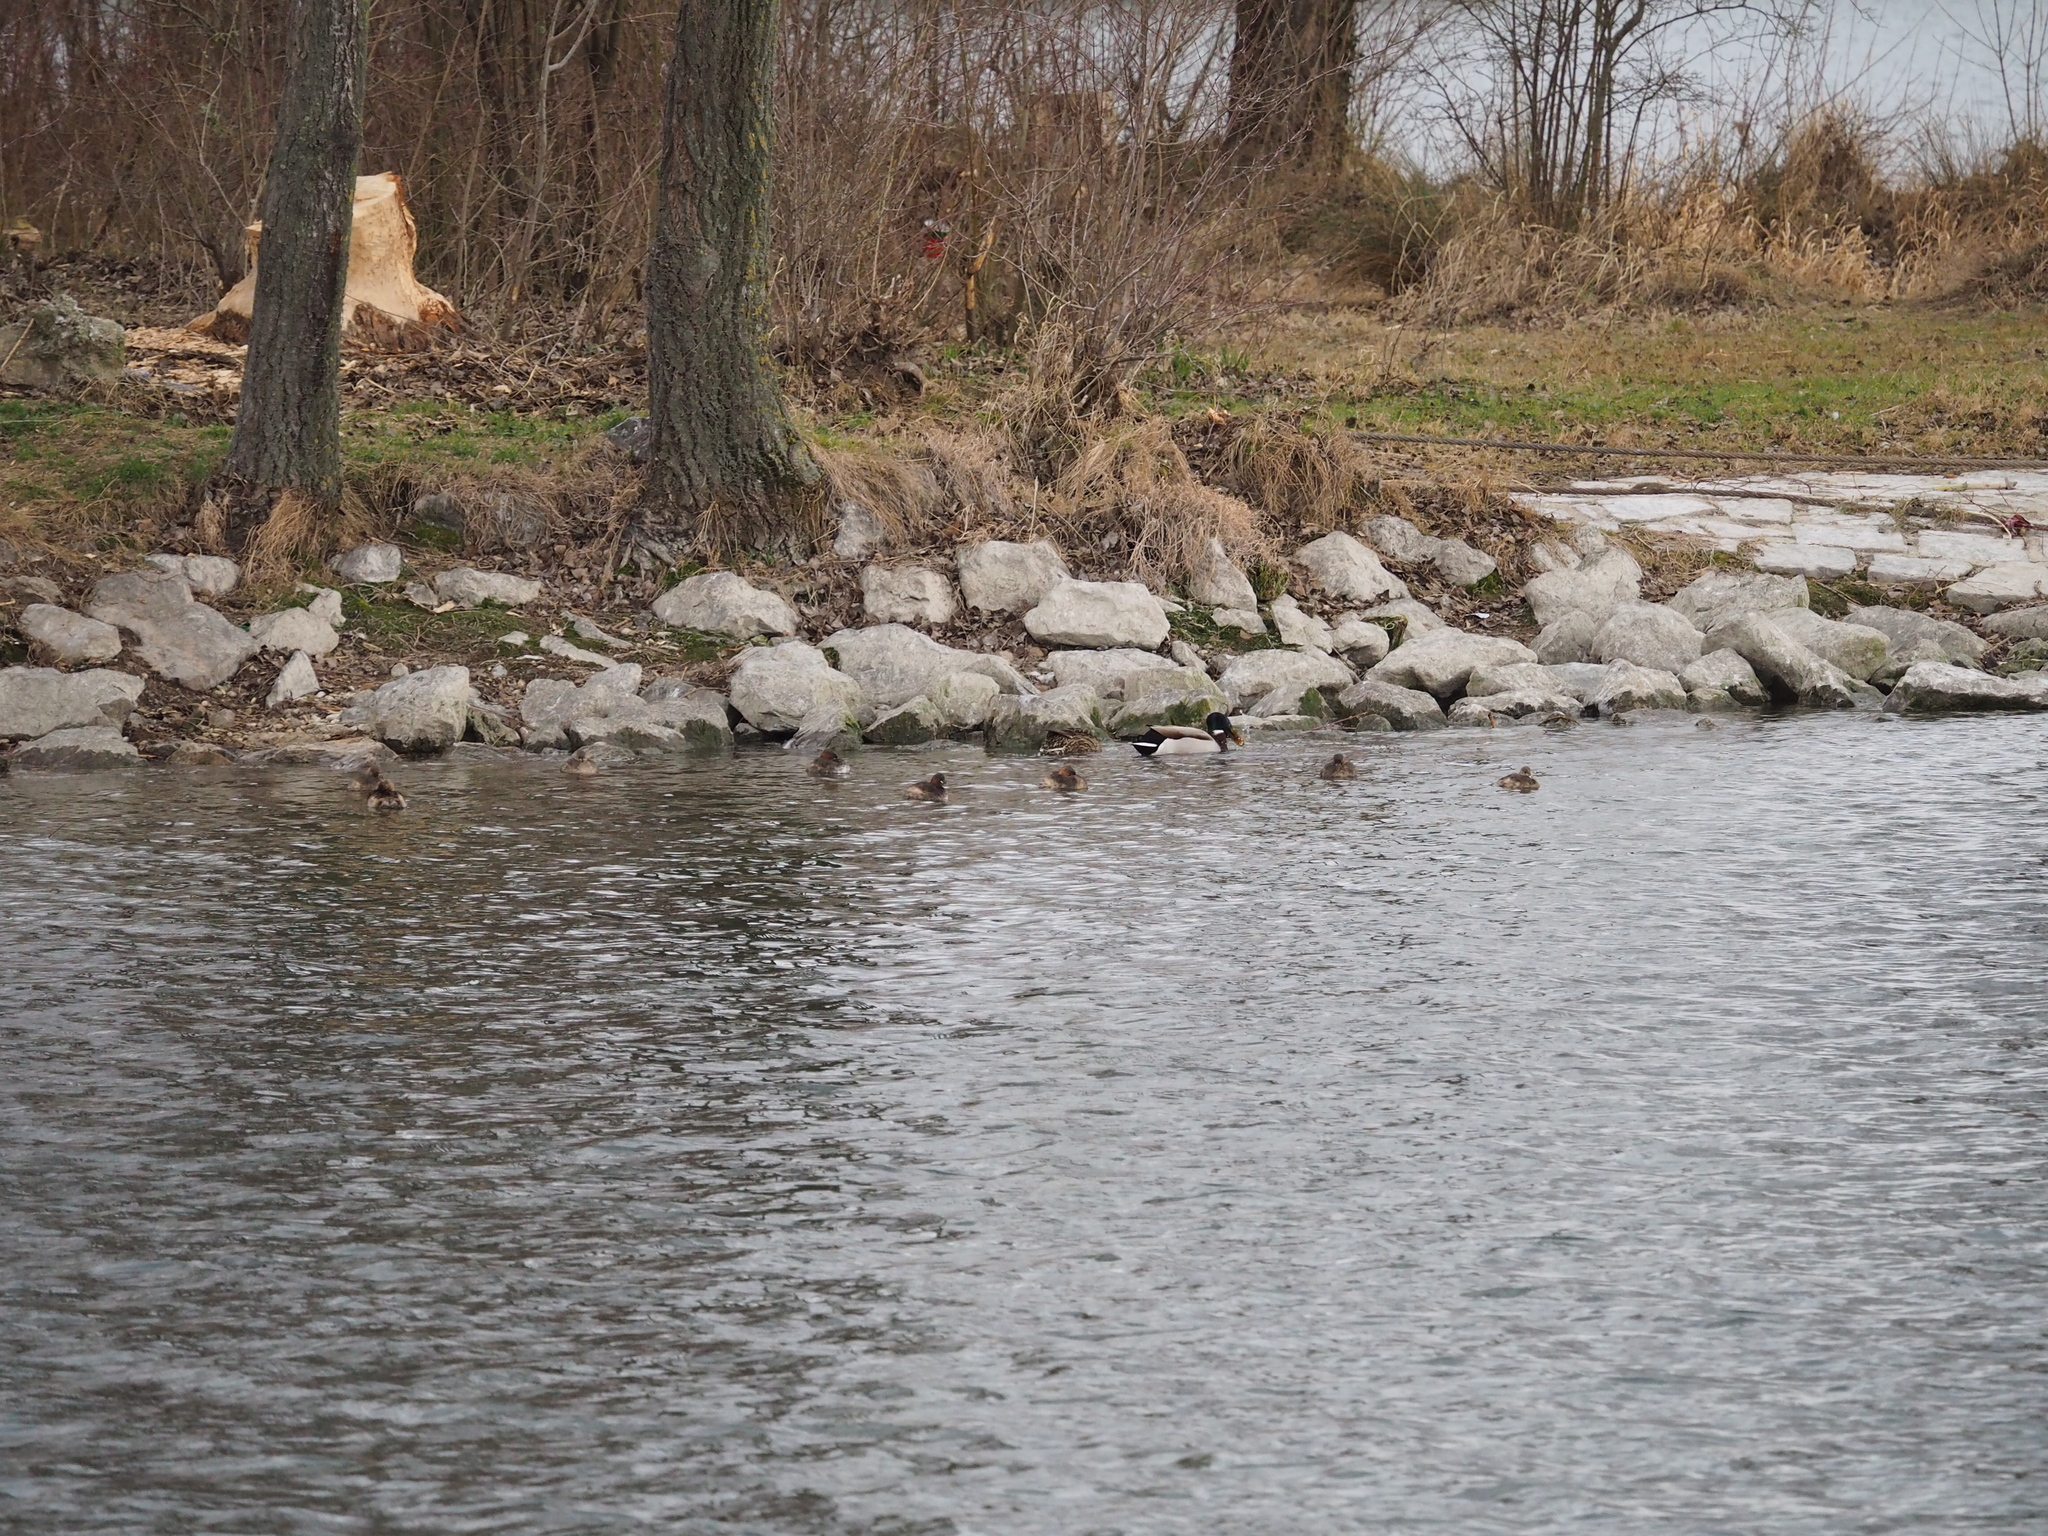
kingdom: Animalia
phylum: Chordata
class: Aves
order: Podicipediformes
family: Podicipedidae
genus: Tachybaptus
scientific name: Tachybaptus ruficollis
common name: Little grebe
